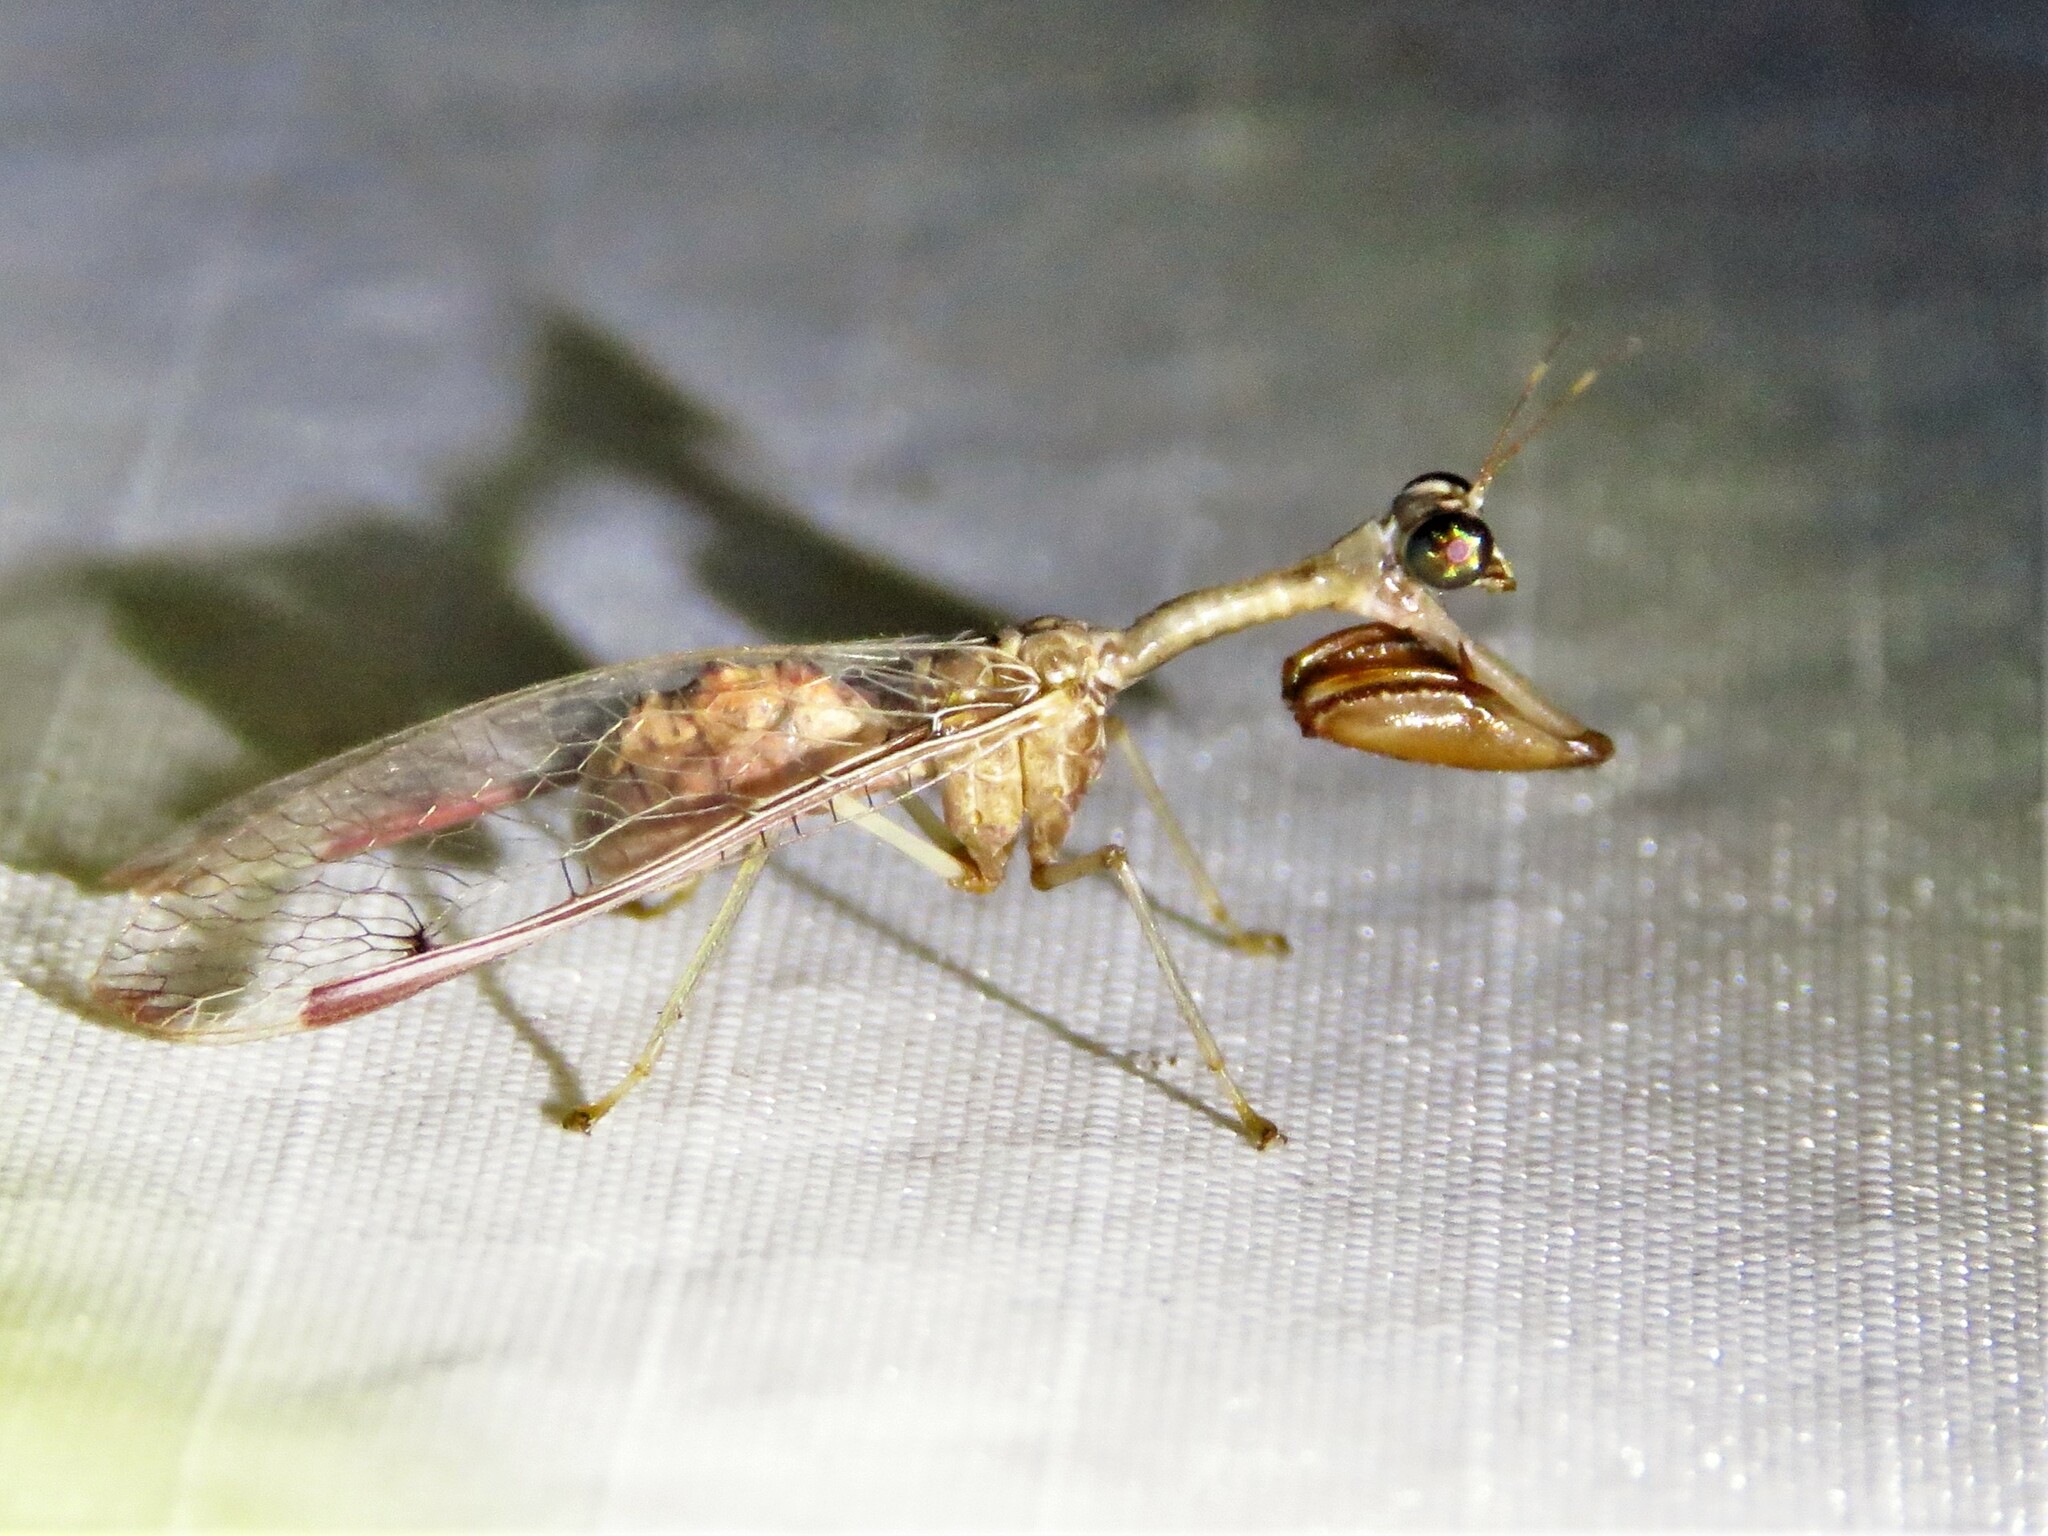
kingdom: Animalia
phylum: Arthropoda
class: Insecta
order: Neuroptera
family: Mantispidae
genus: Dicromantispa
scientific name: Dicromantispa interrupta
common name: Four-spotted mantidfly
